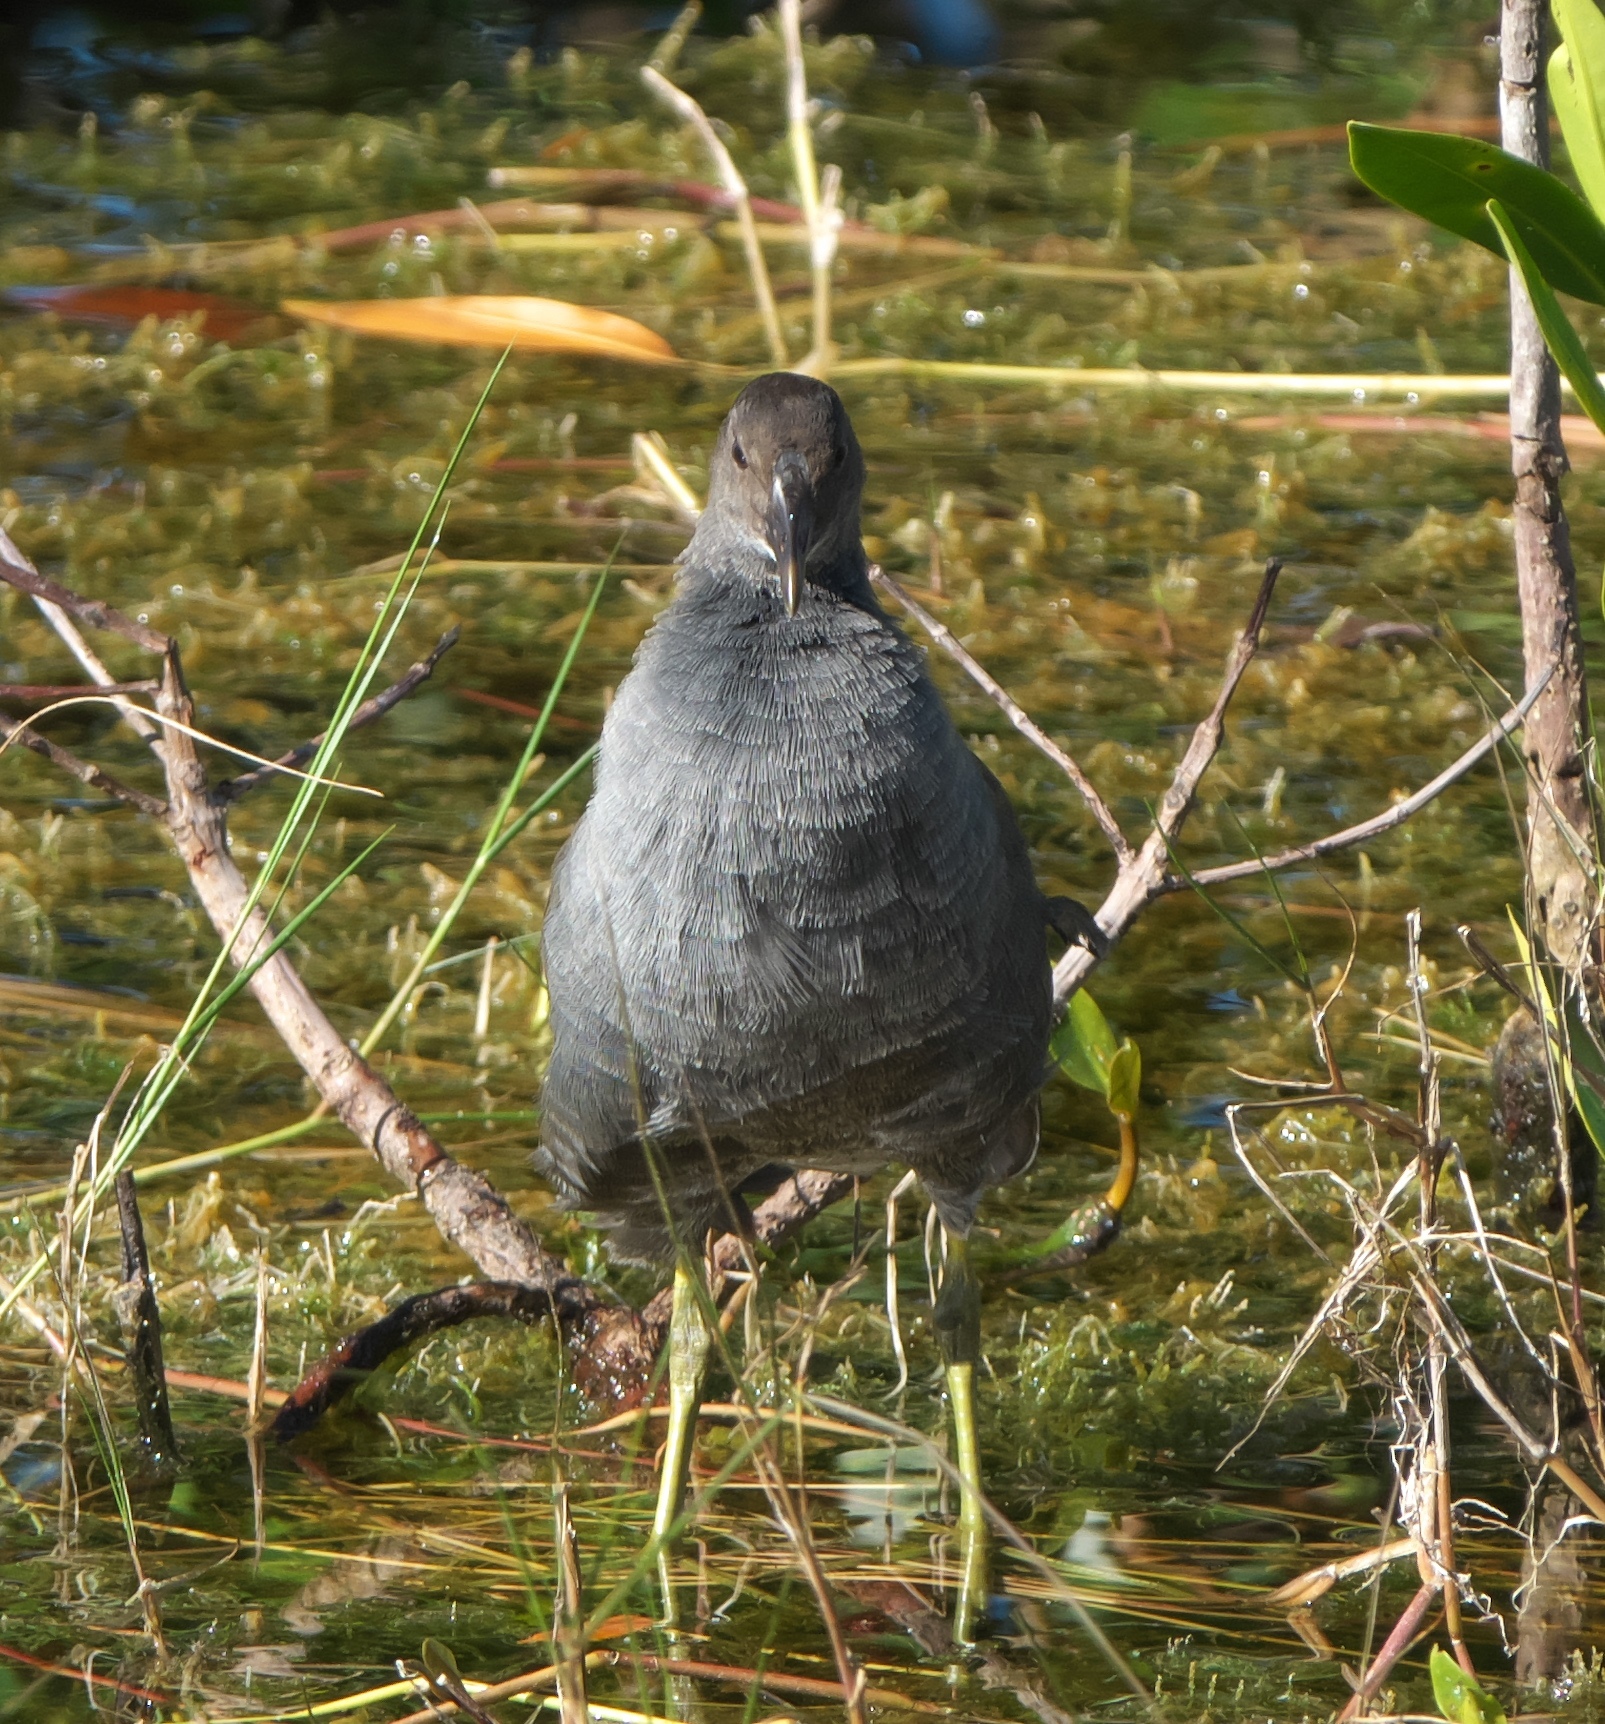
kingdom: Animalia
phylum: Chordata
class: Aves
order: Gruiformes
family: Rallidae
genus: Gallinula
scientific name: Gallinula chloropus
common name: Common moorhen
